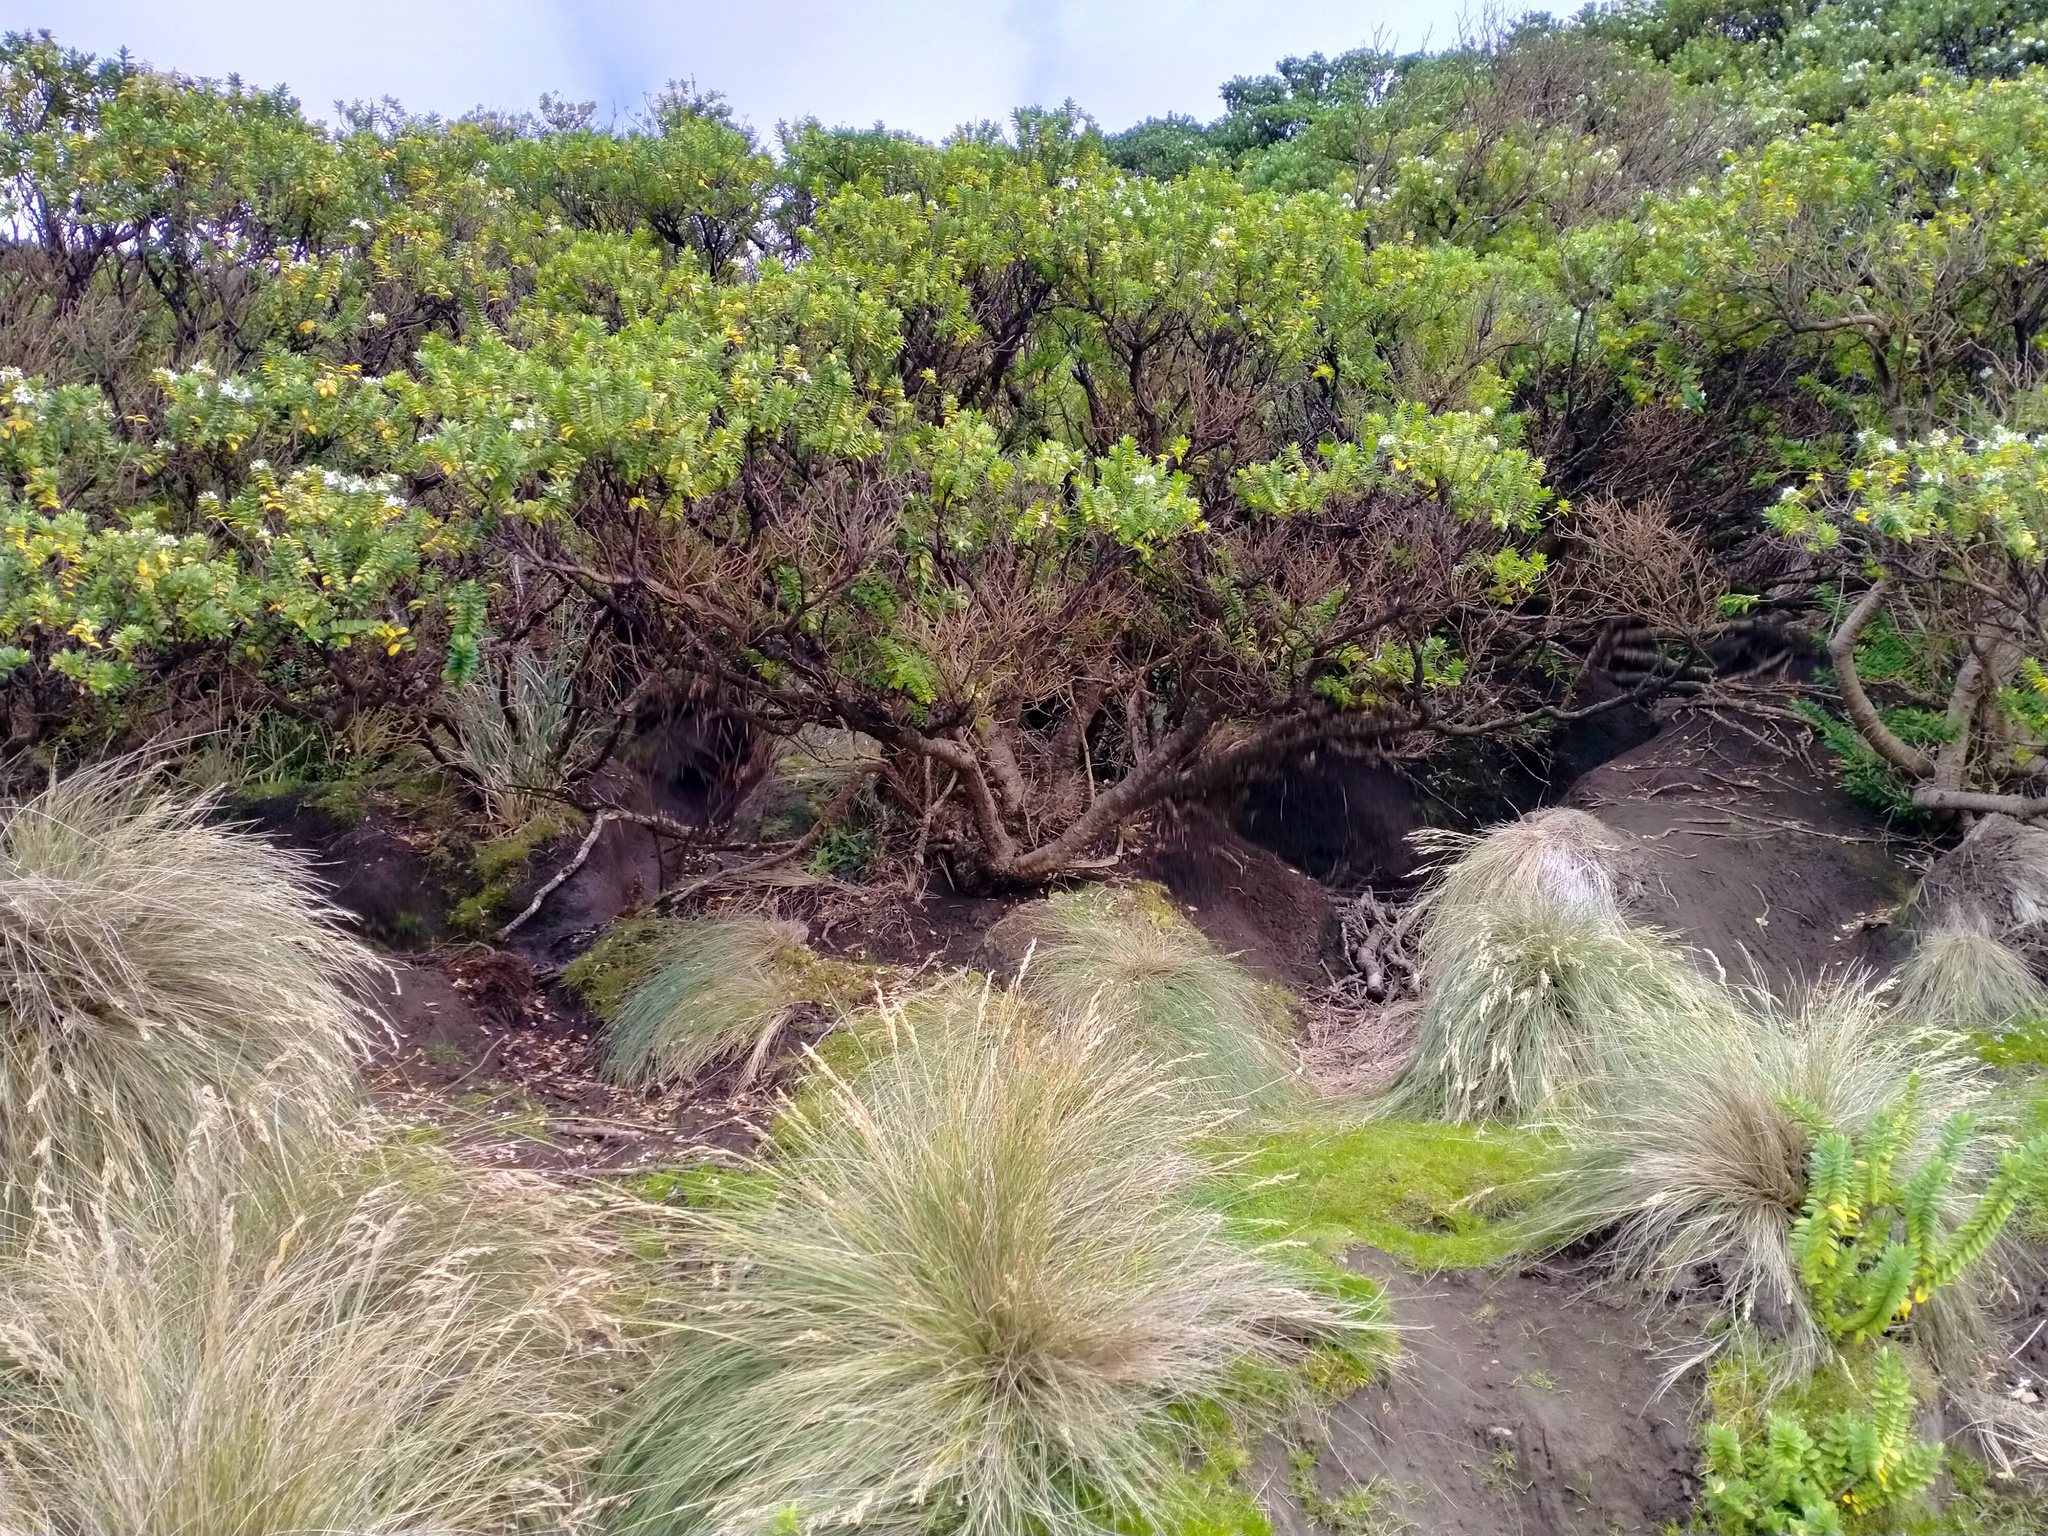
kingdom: Plantae
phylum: Tracheophyta
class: Magnoliopsida
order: Lamiales
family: Plantaginaceae
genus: Veronica
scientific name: Veronica elliptica
